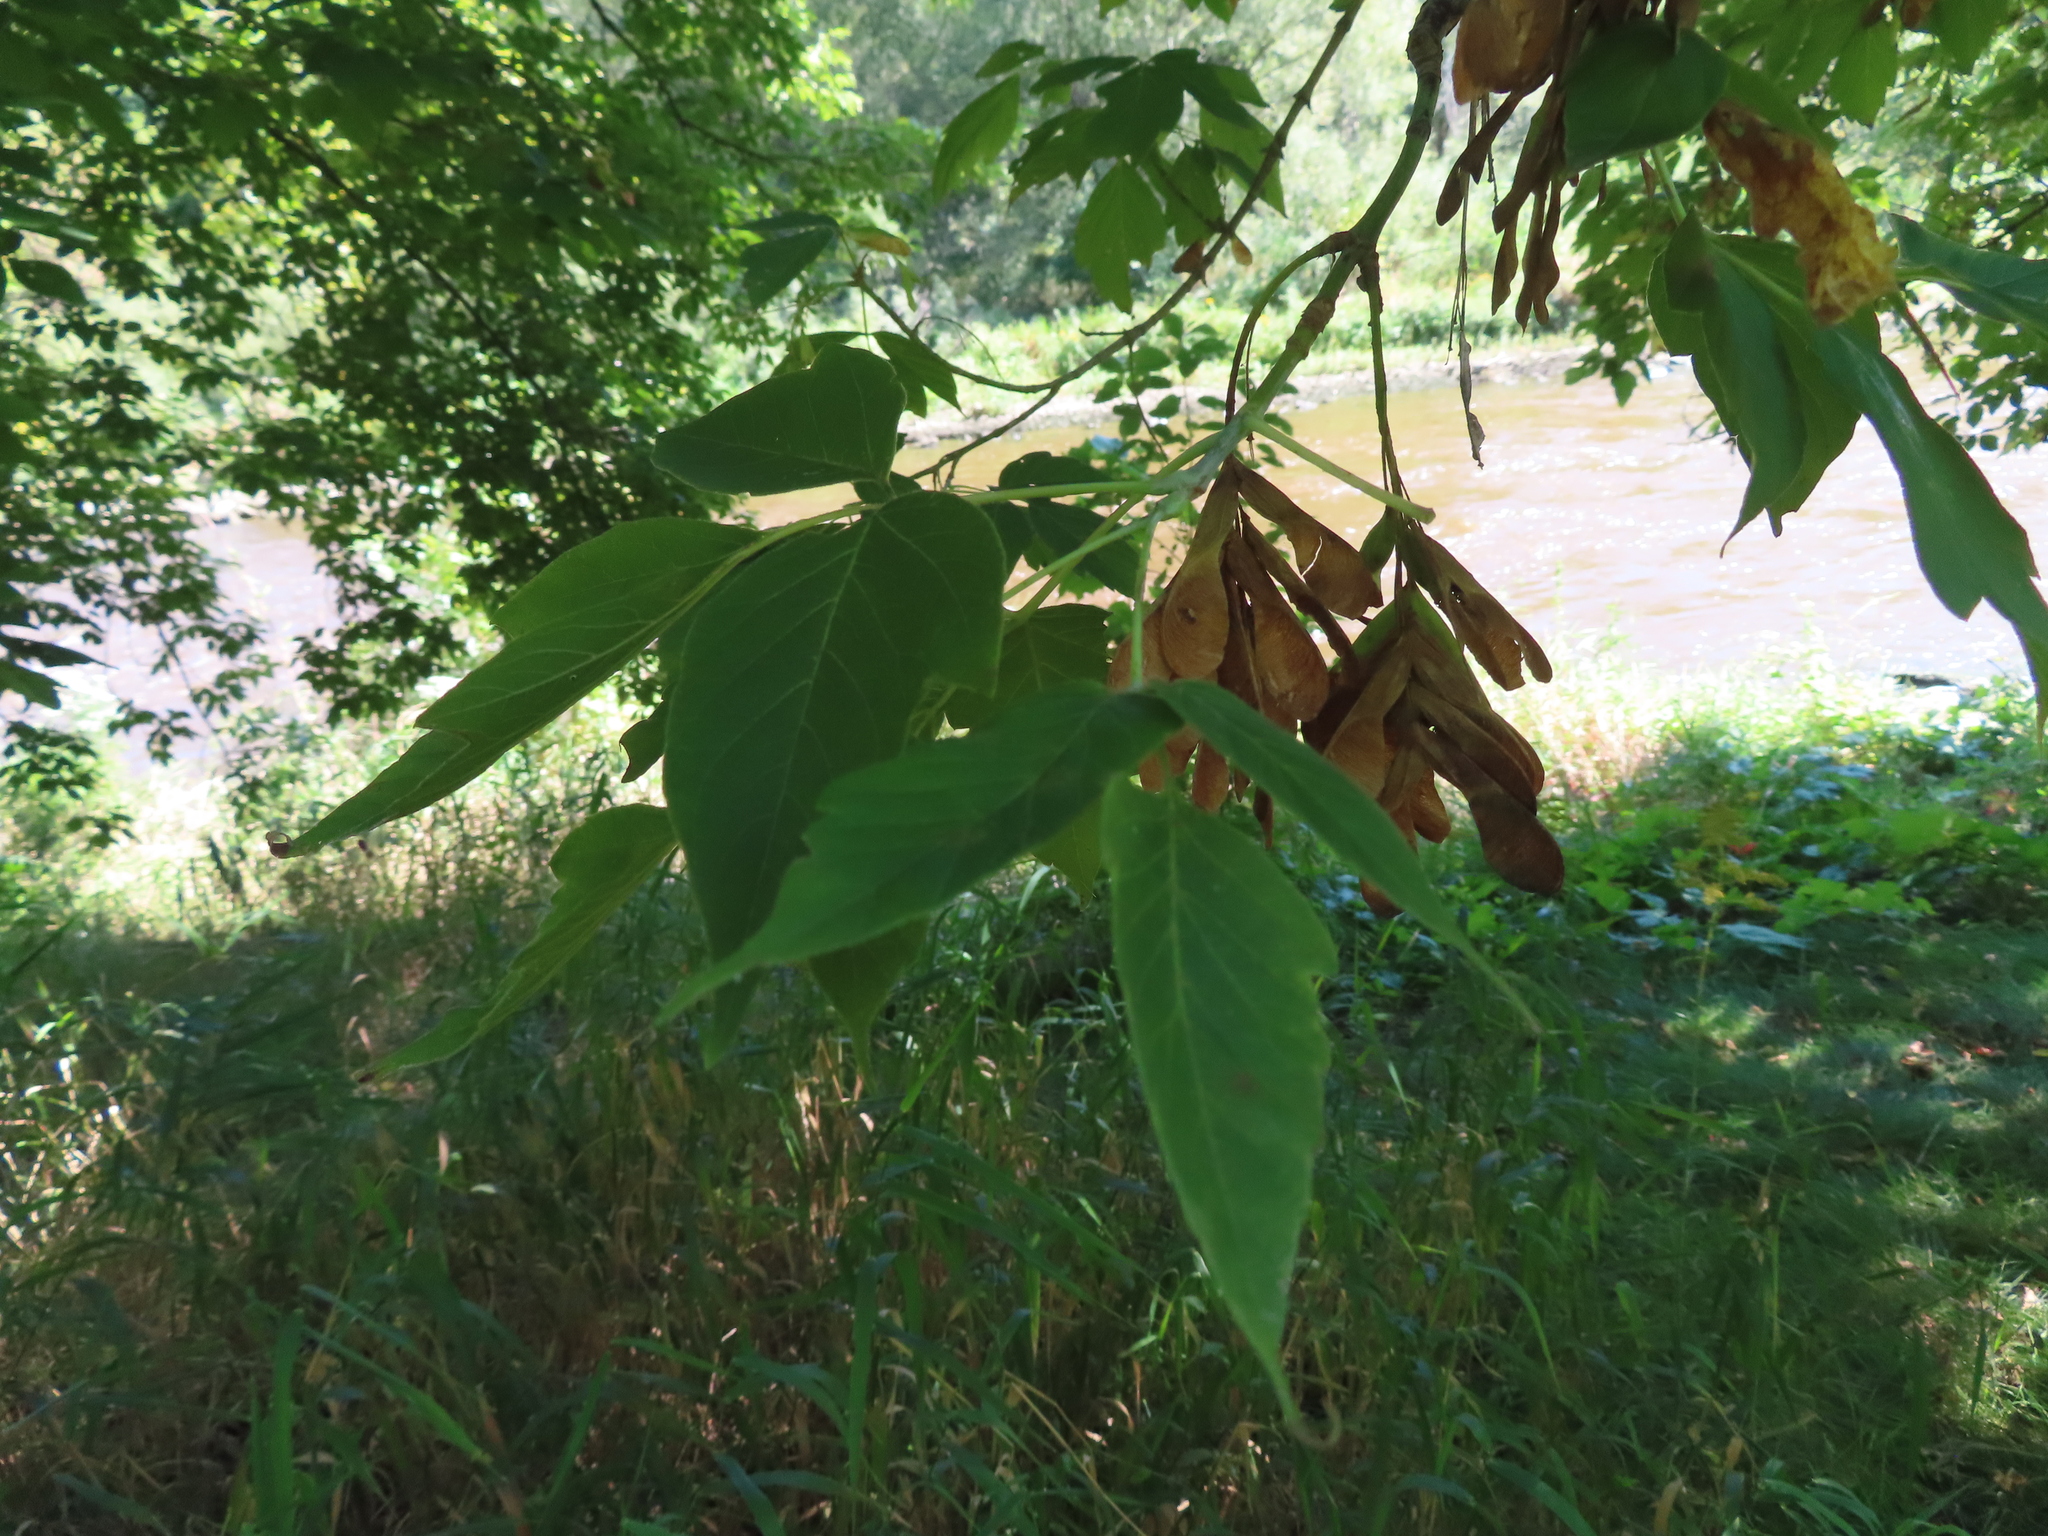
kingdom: Plantae
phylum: Tracheophyta
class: Magnoliopsida
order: Sapindales
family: Sapindaceae
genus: Acer
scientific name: Acer negundo
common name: Ashleaf maple
